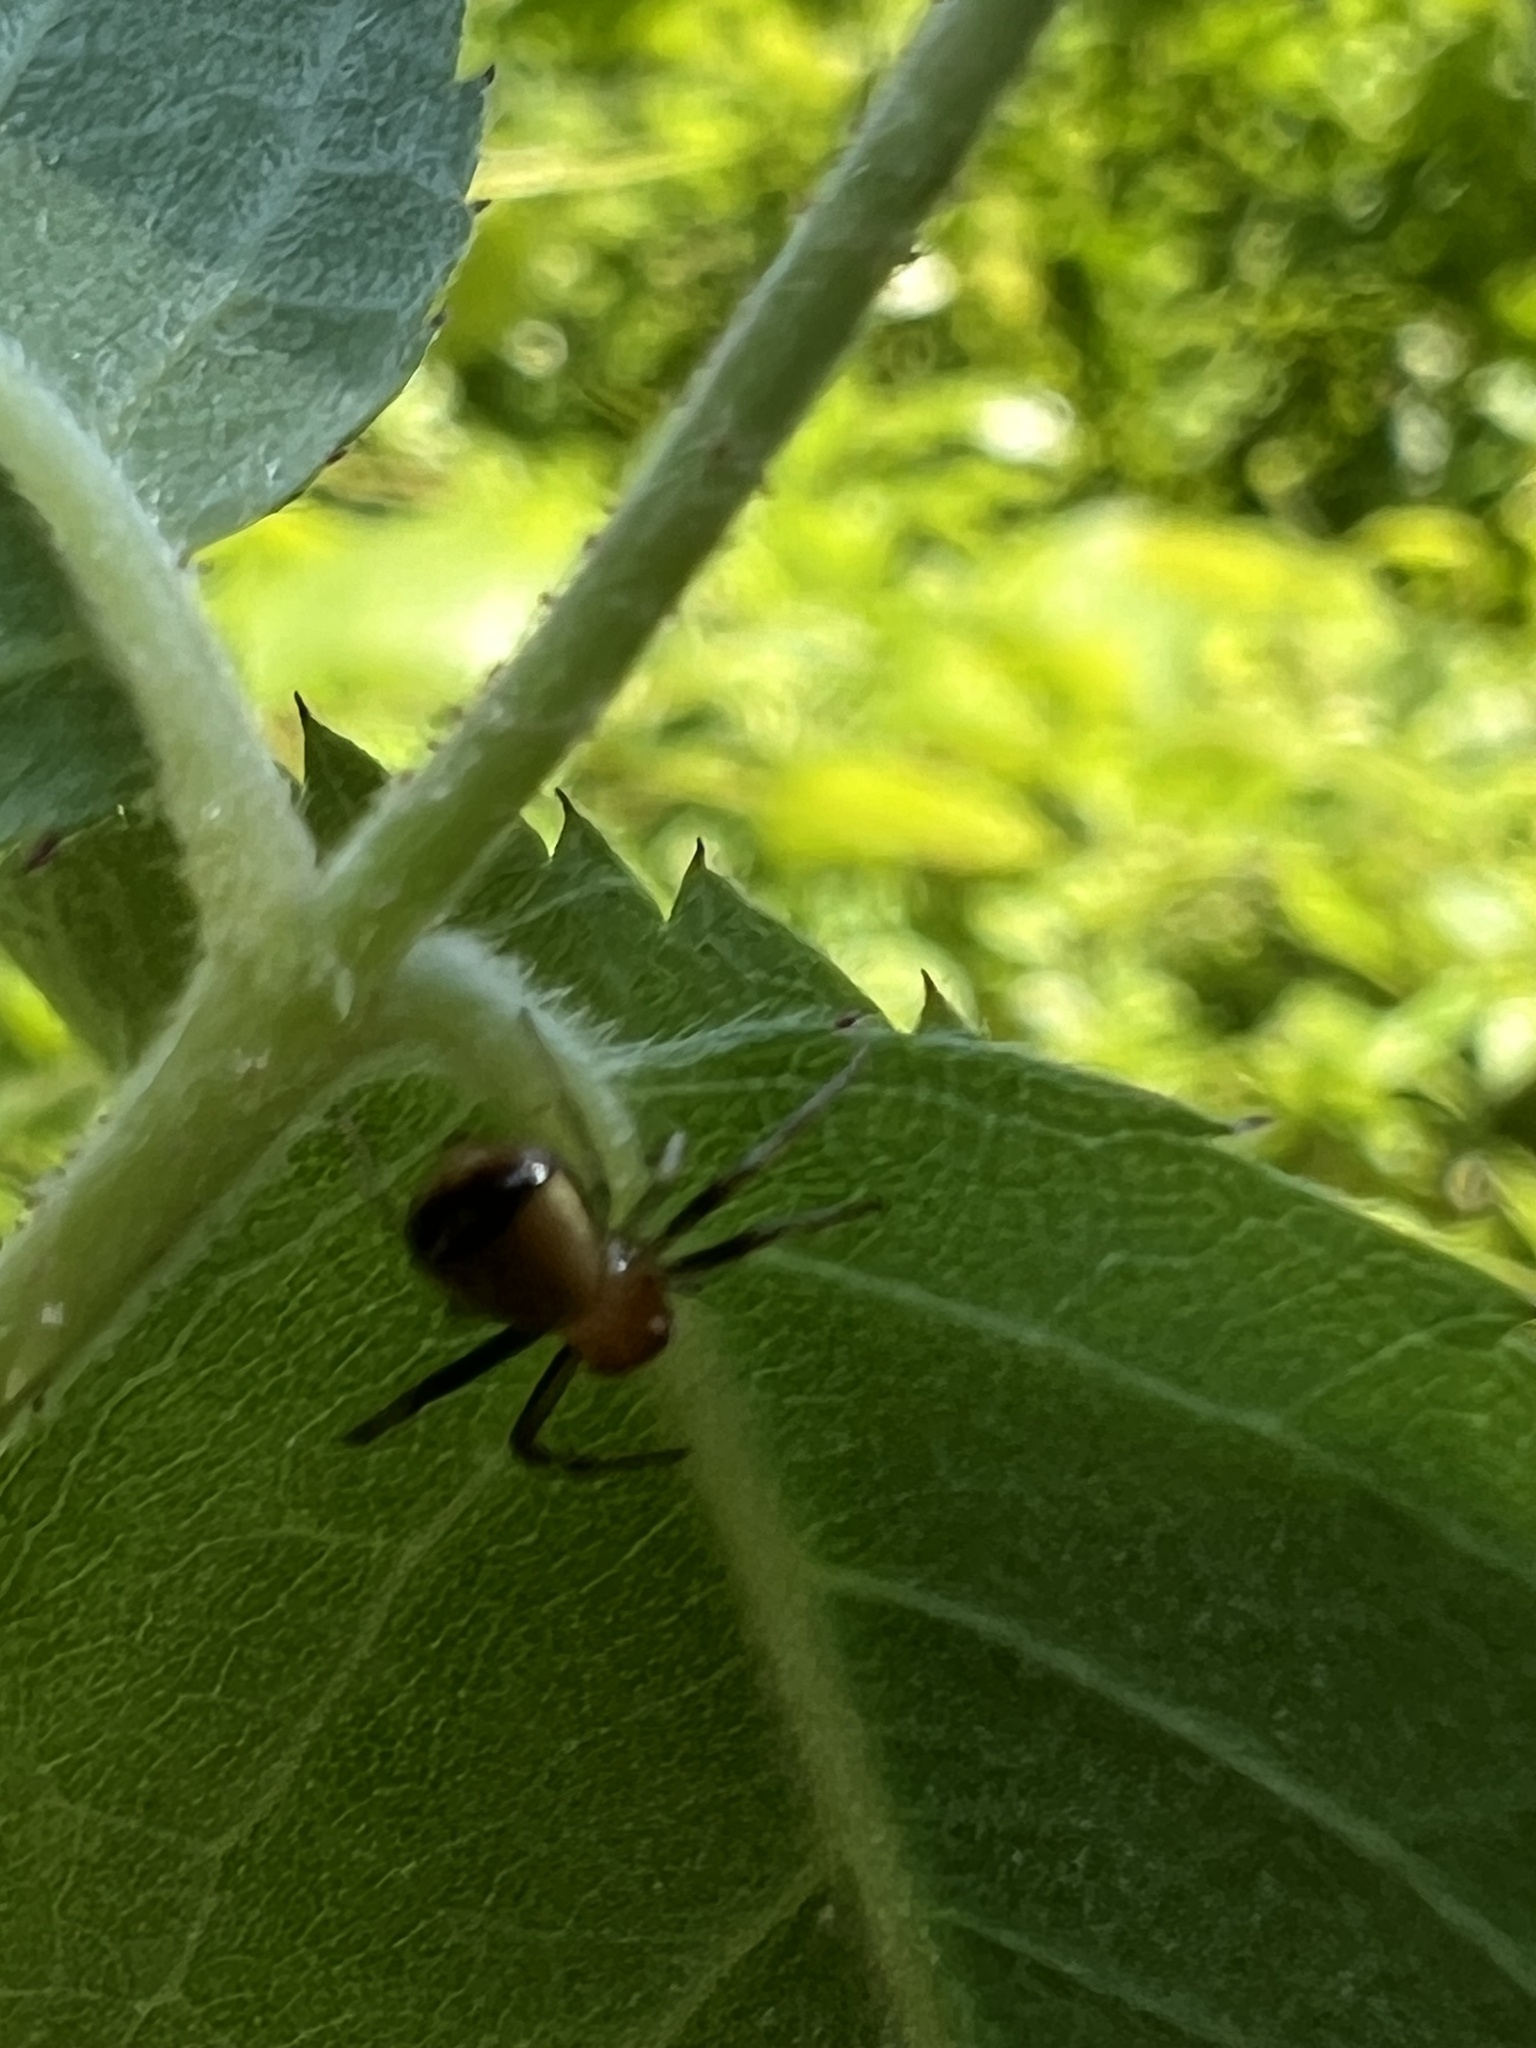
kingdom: Animalia
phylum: Arthropoda
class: Arachnida
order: Araneae
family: Thomisidae
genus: Synema
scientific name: Synema parvulum
